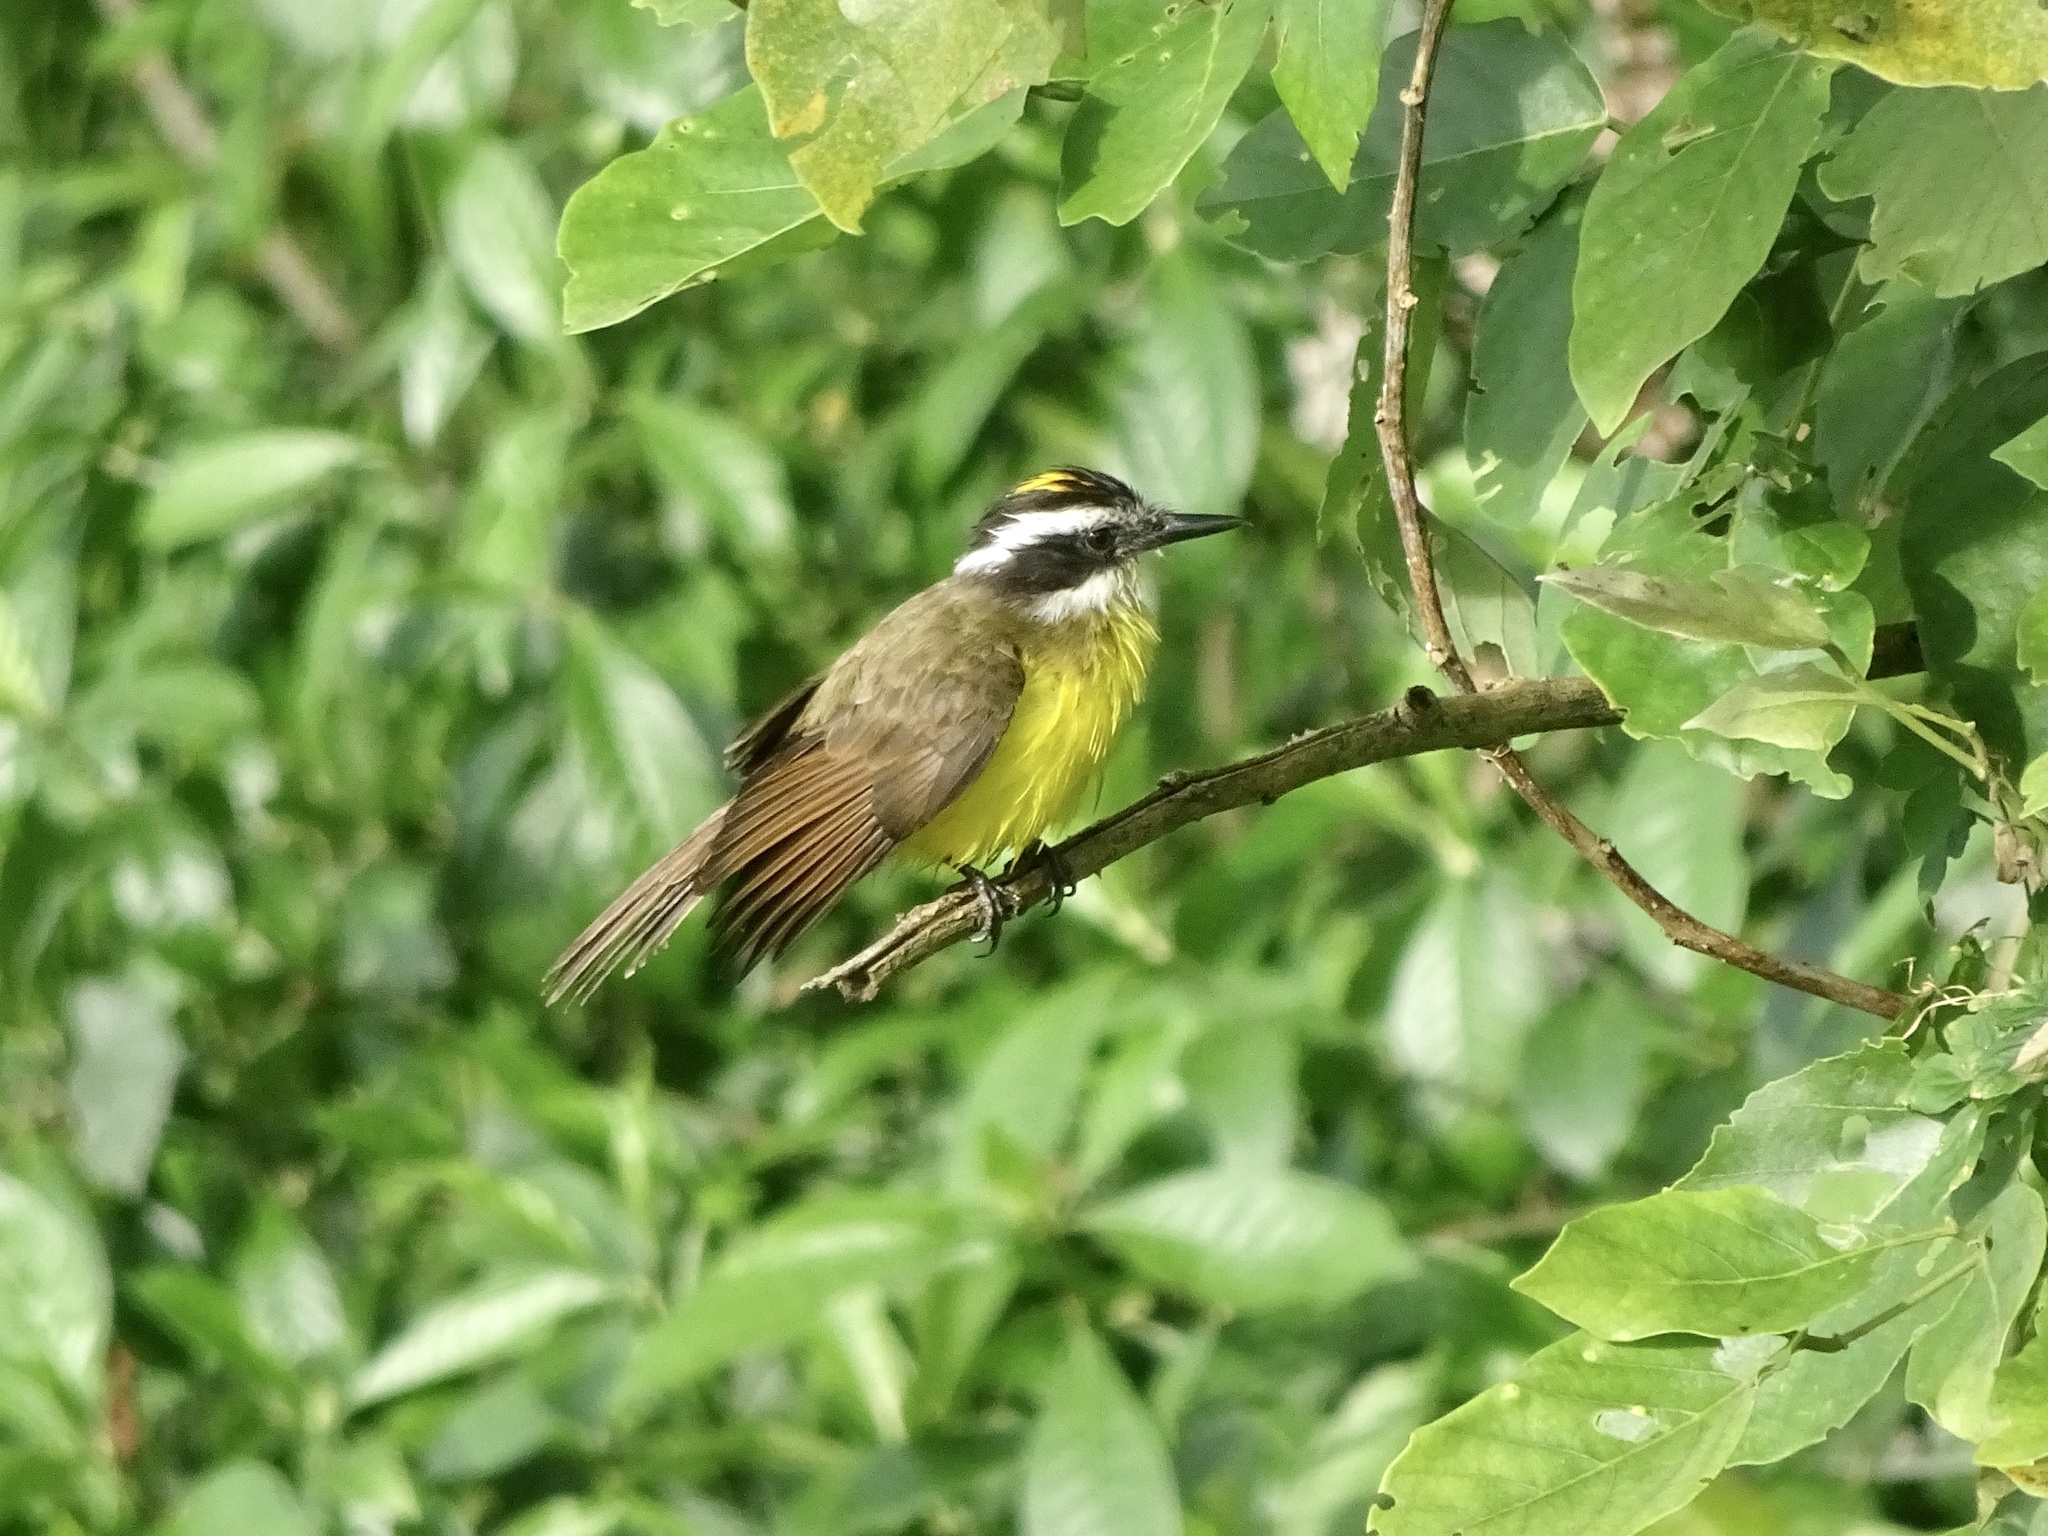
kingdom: Animalia
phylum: Chordata
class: Aves
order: Passeriformes
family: Tyrannidae
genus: Pitangus
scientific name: Pitangus lictor
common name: Lesser kiskadee
